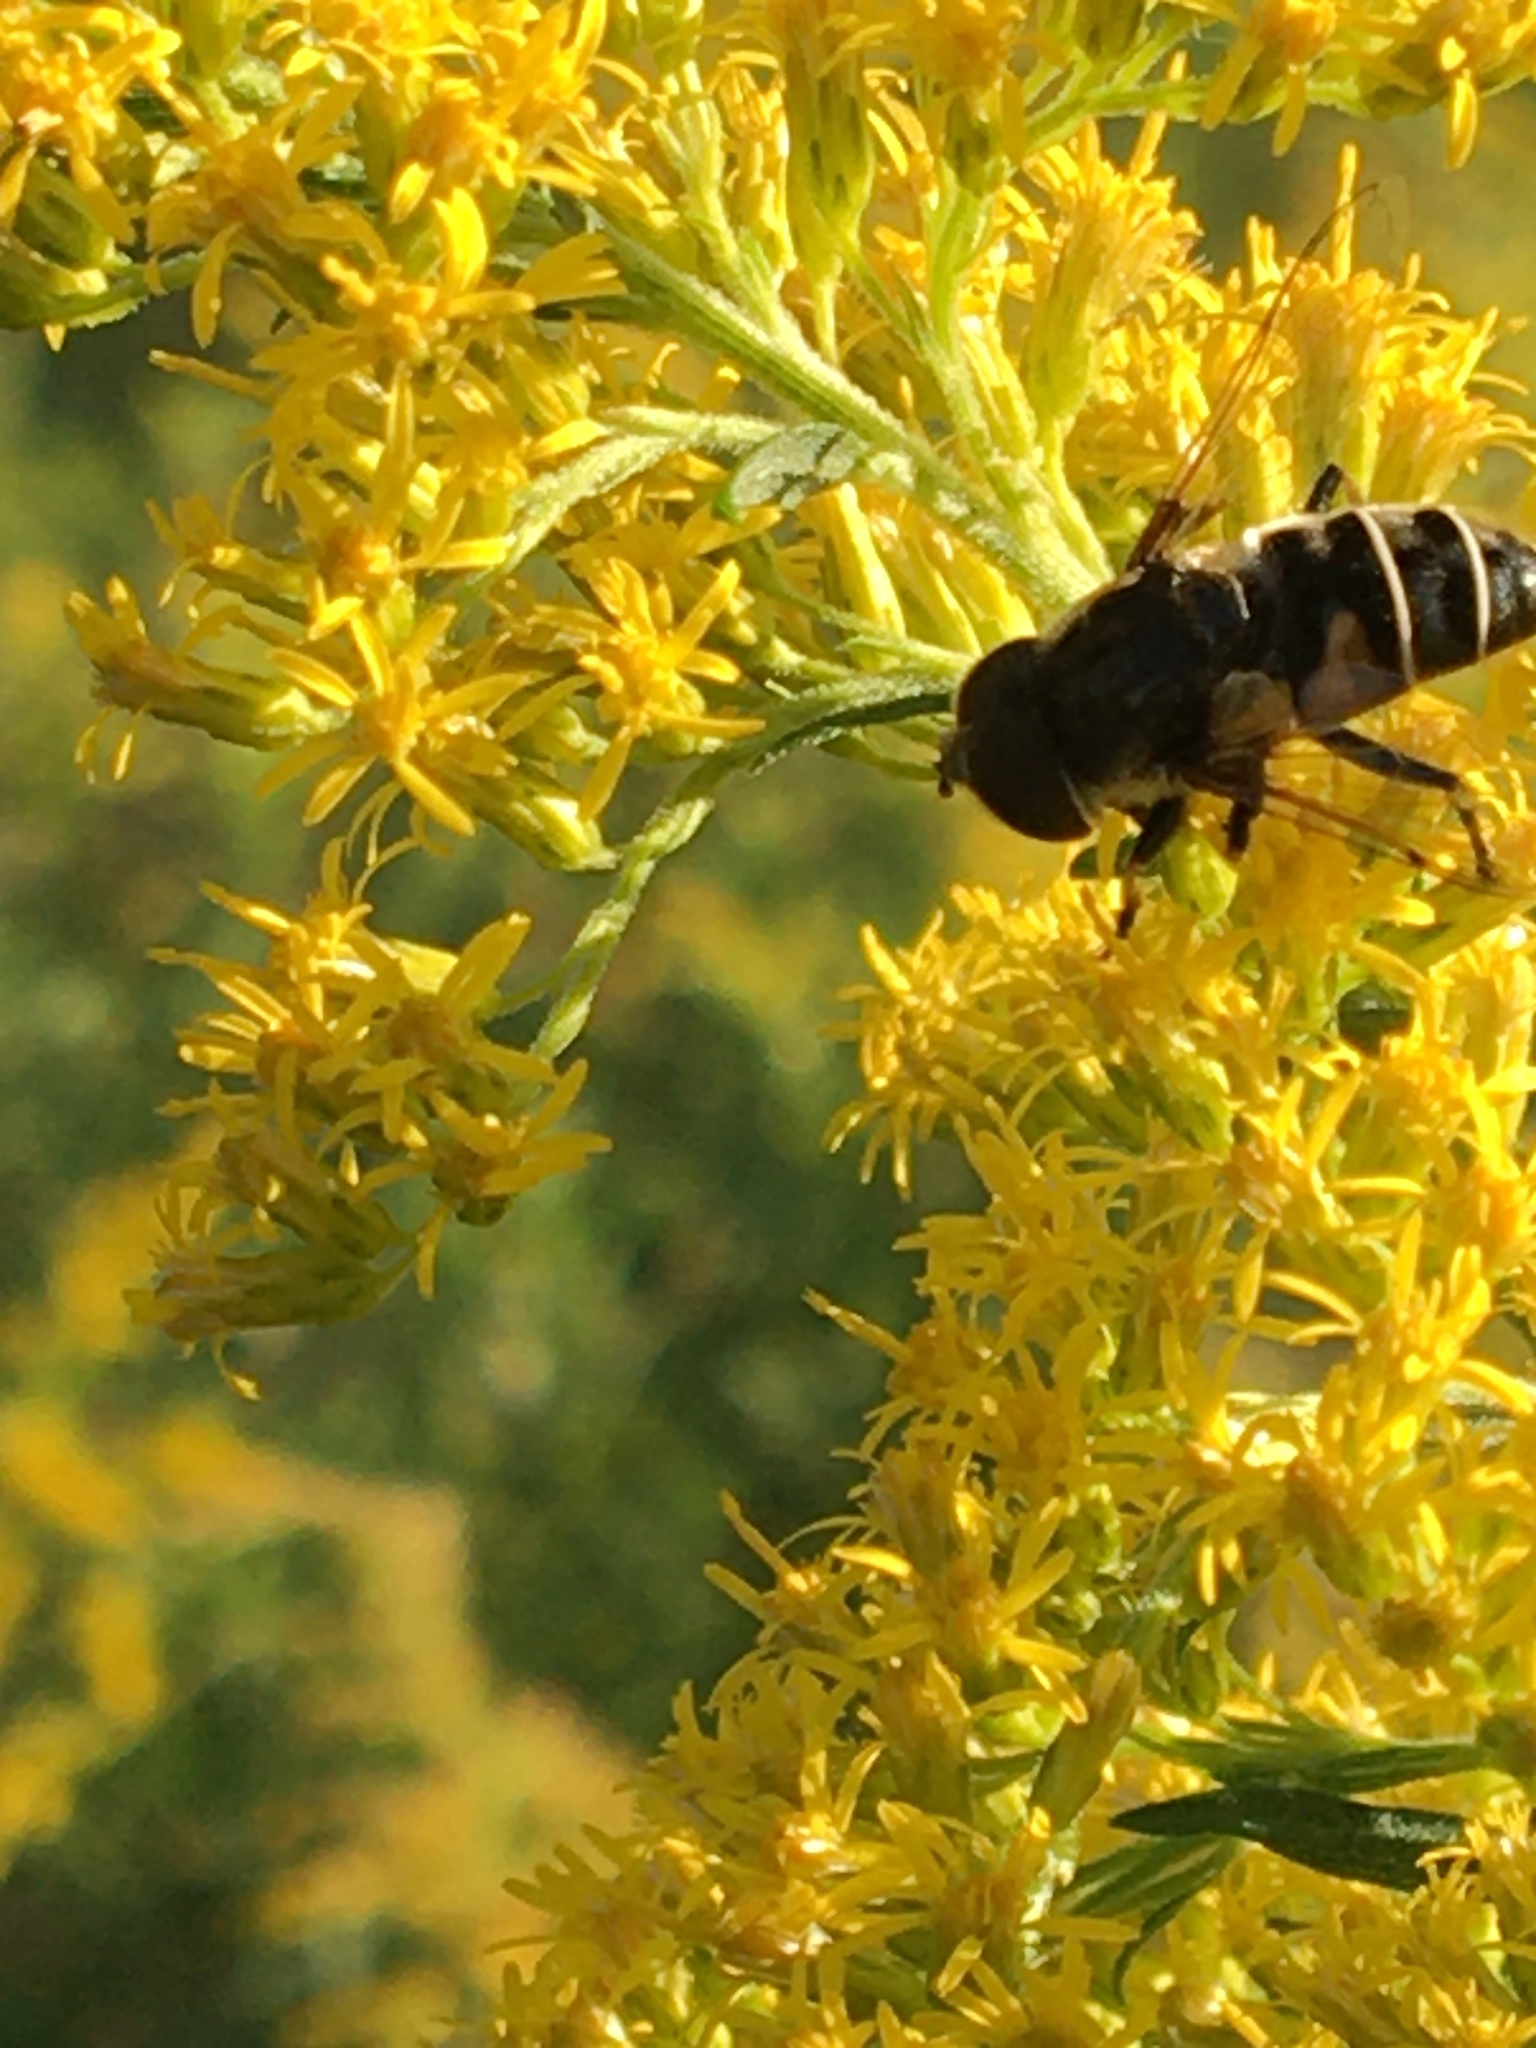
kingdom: Animalia
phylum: Arthropoda
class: Insecta
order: Diptera
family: Syrphidae
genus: Eristalis
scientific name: Eristalis dimidiata
